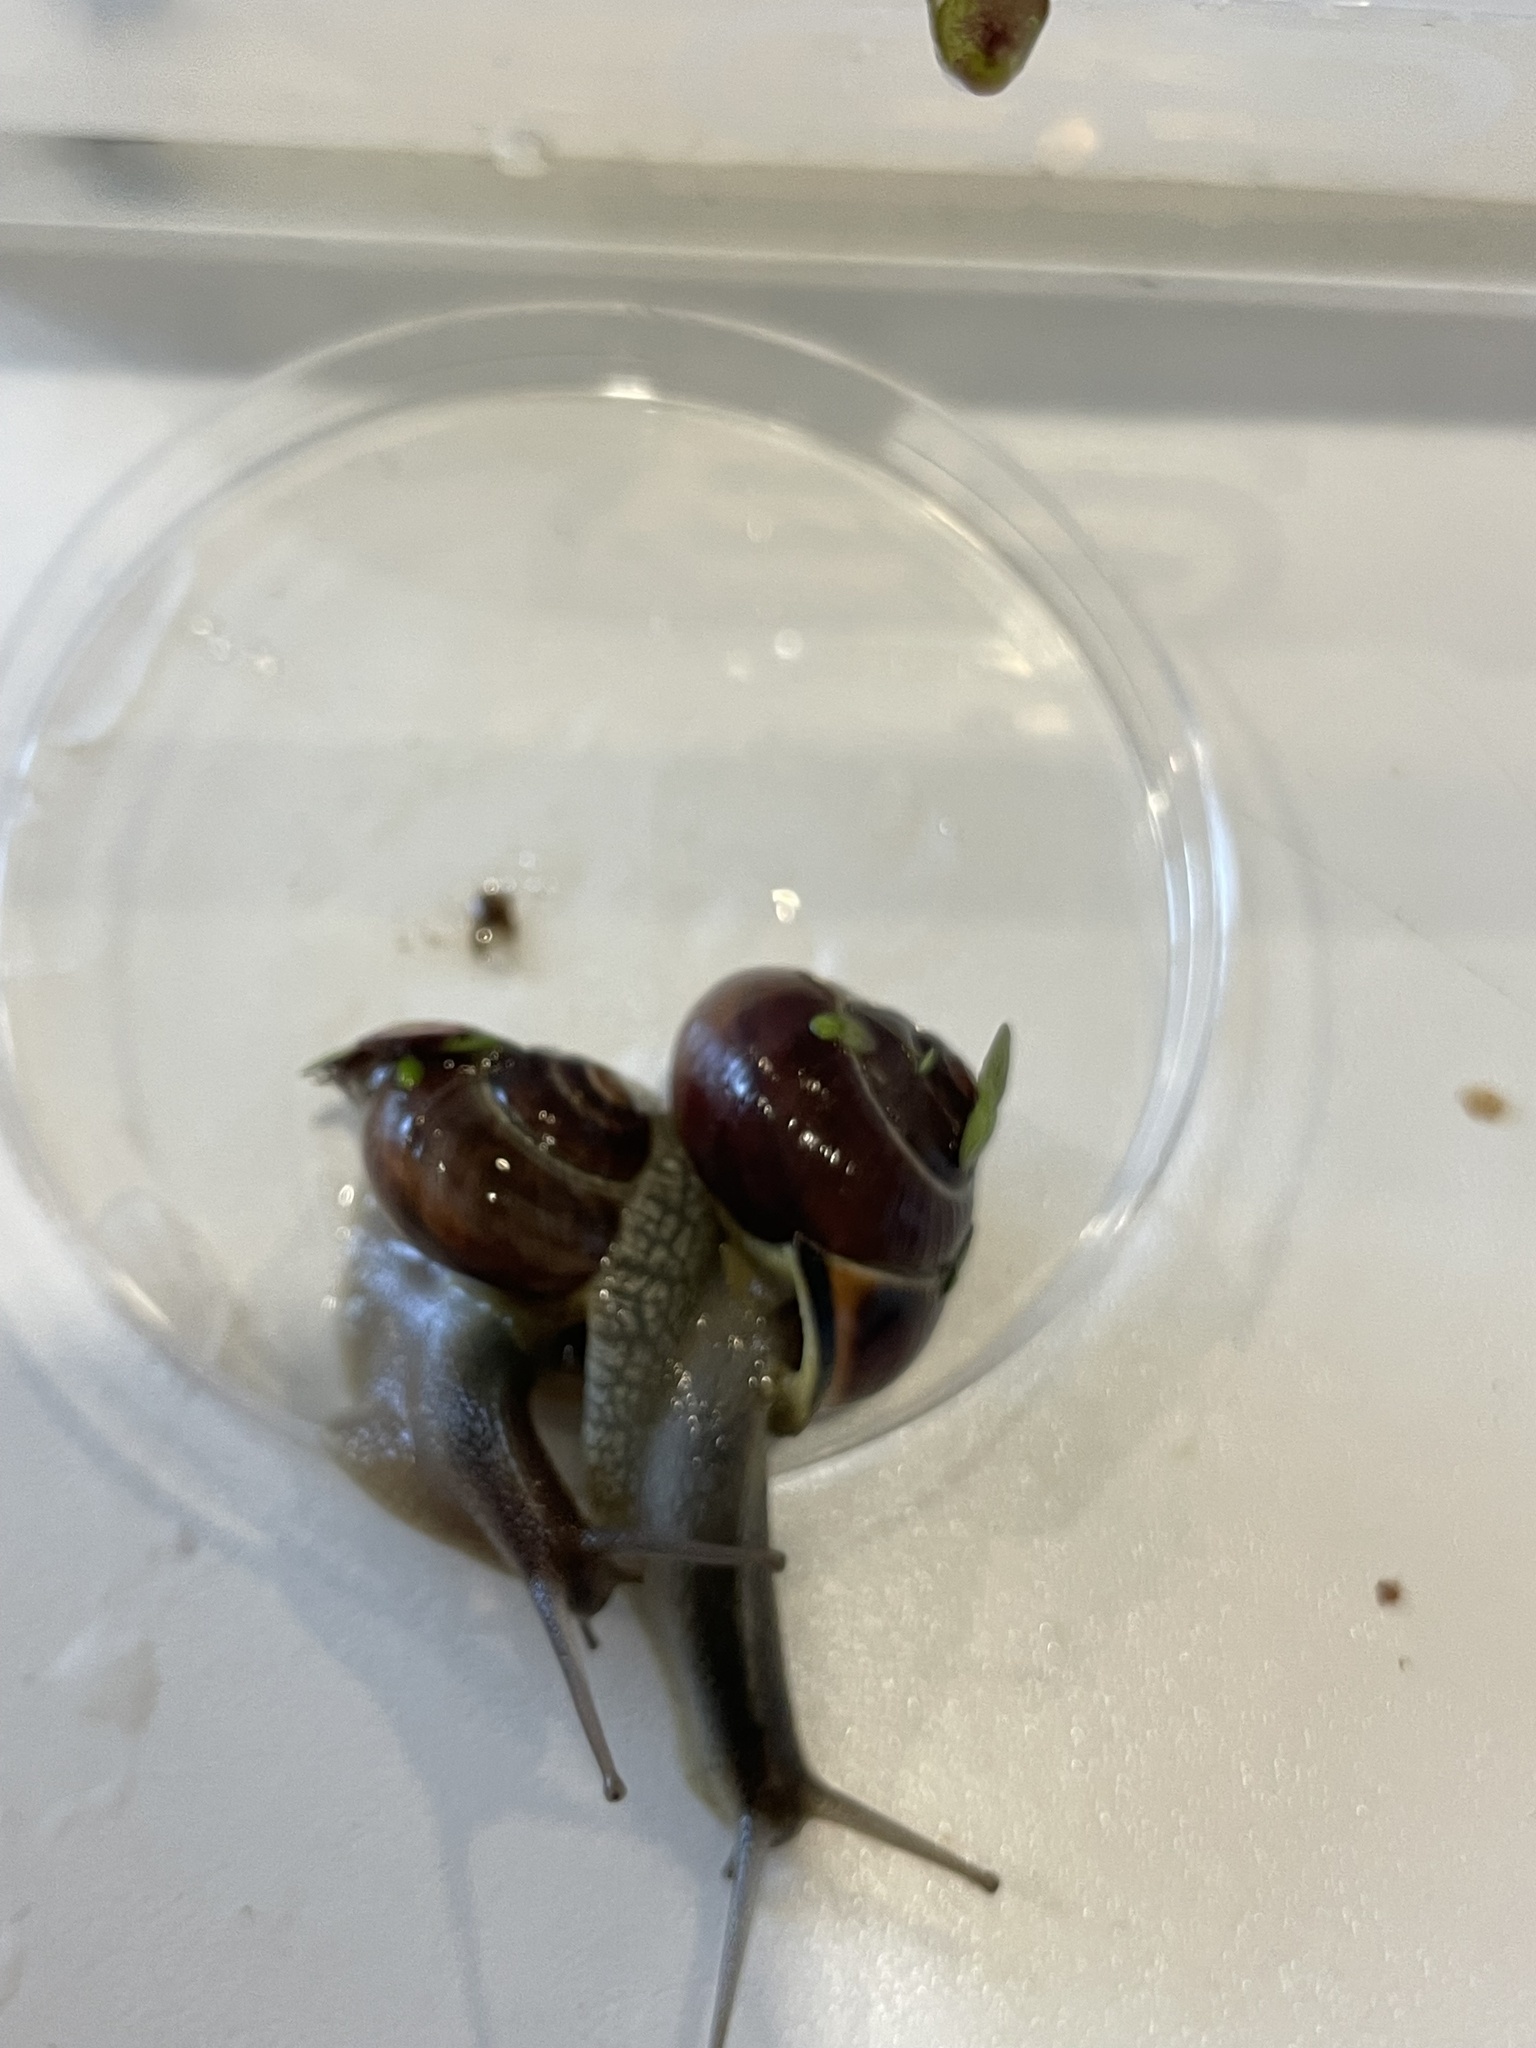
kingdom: Animalia
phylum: Mollusca
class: Gastropoda
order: Stylommatophora
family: Helicidae
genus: Cepaea
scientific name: Cepaea nemoralis
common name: Grovesnail
